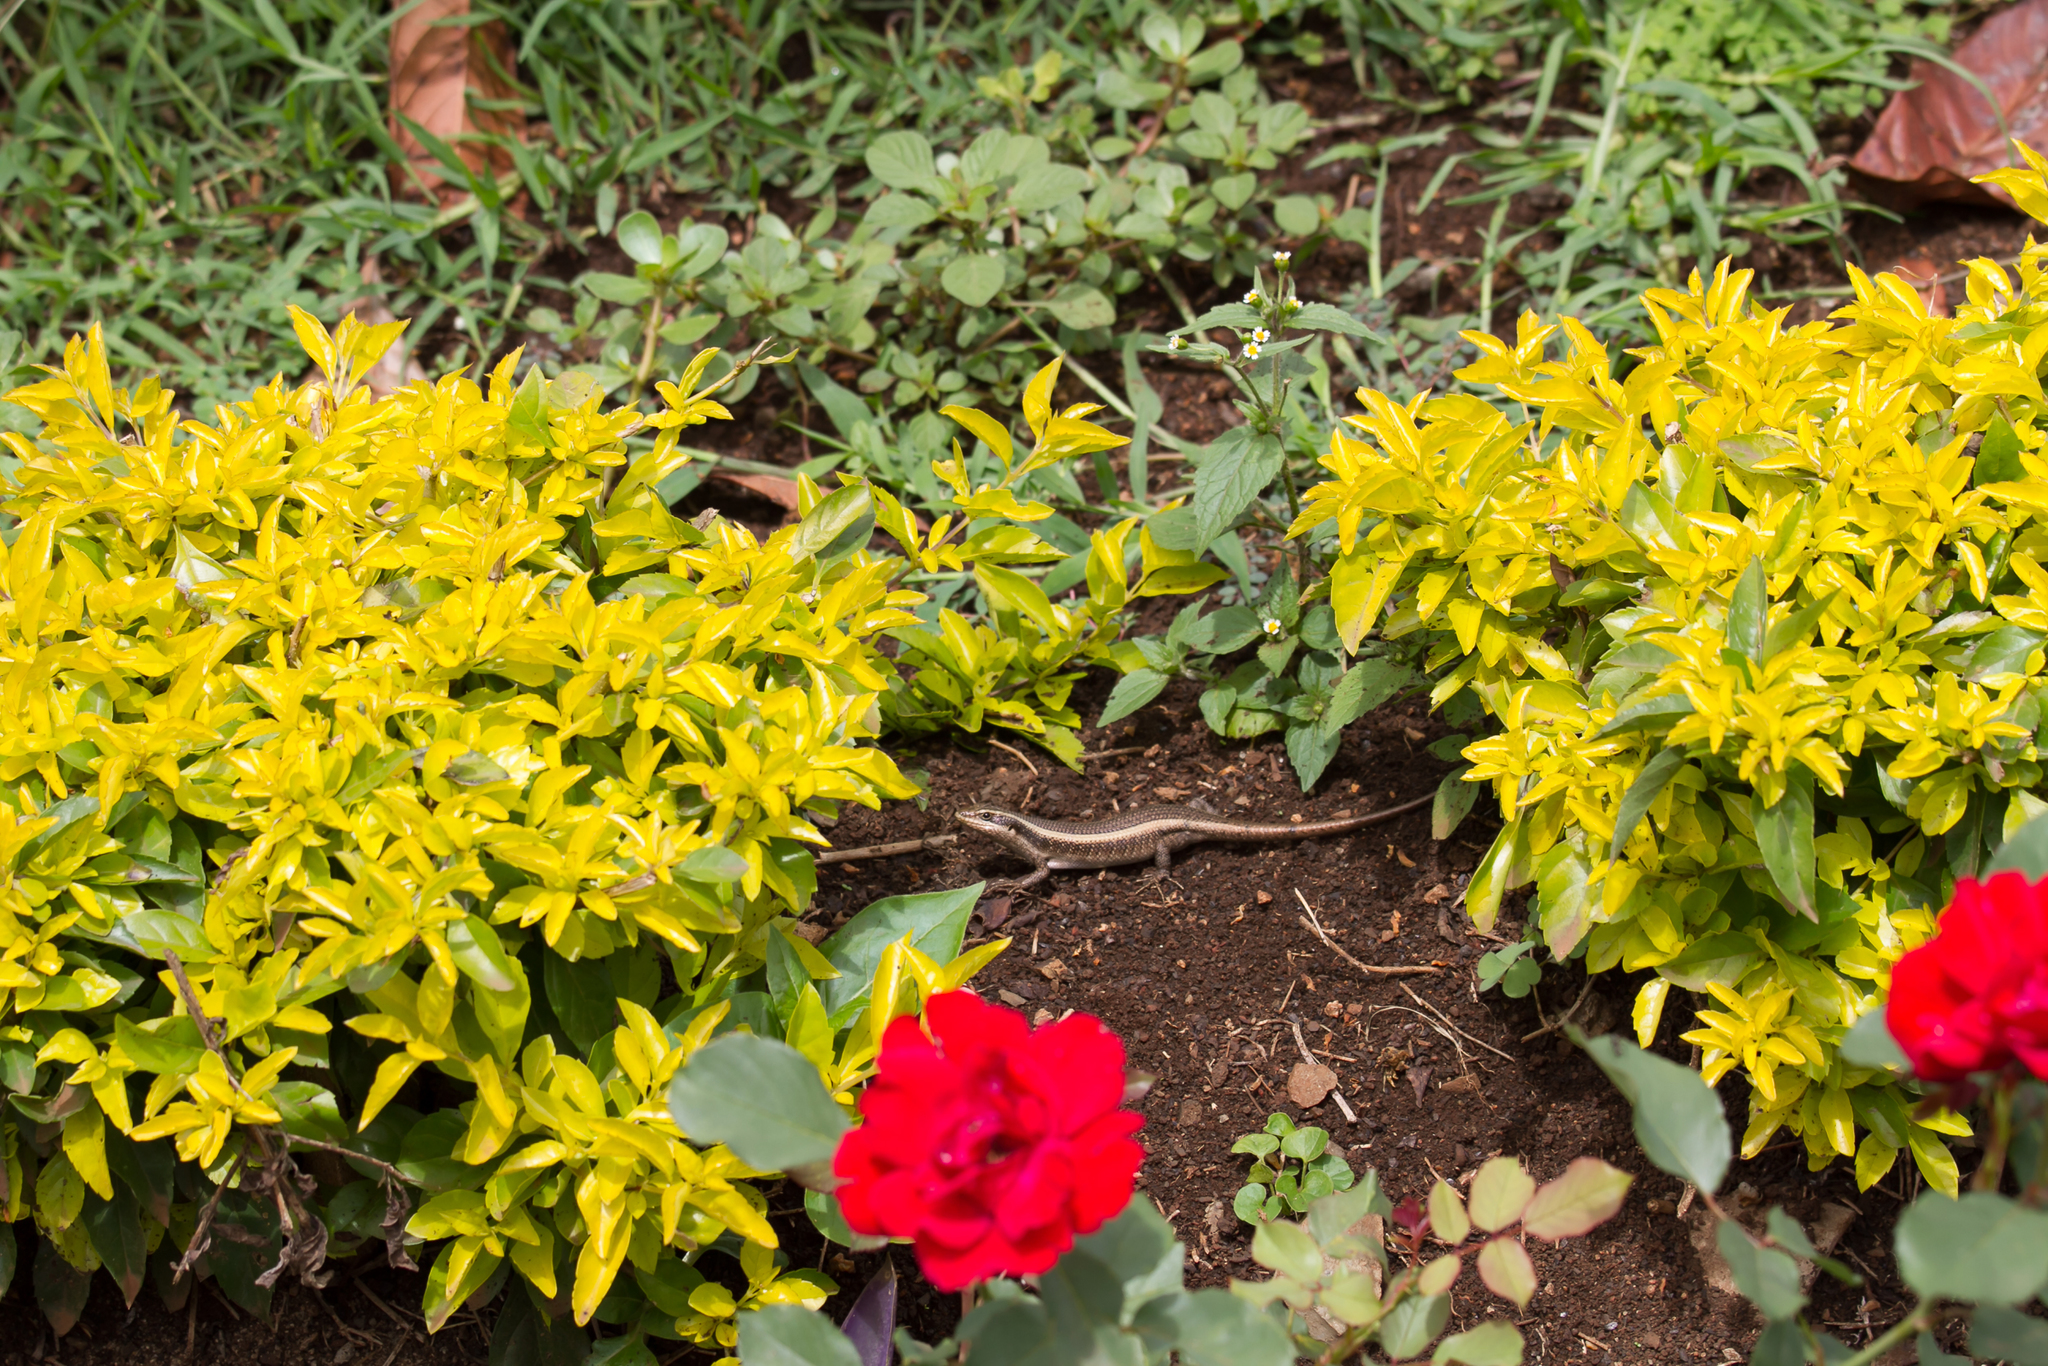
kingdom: Animalia
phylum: Chordata
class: Squamata
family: Scincidae
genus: Trachylepis
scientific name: Trachylepis striata
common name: African striped mabuya
